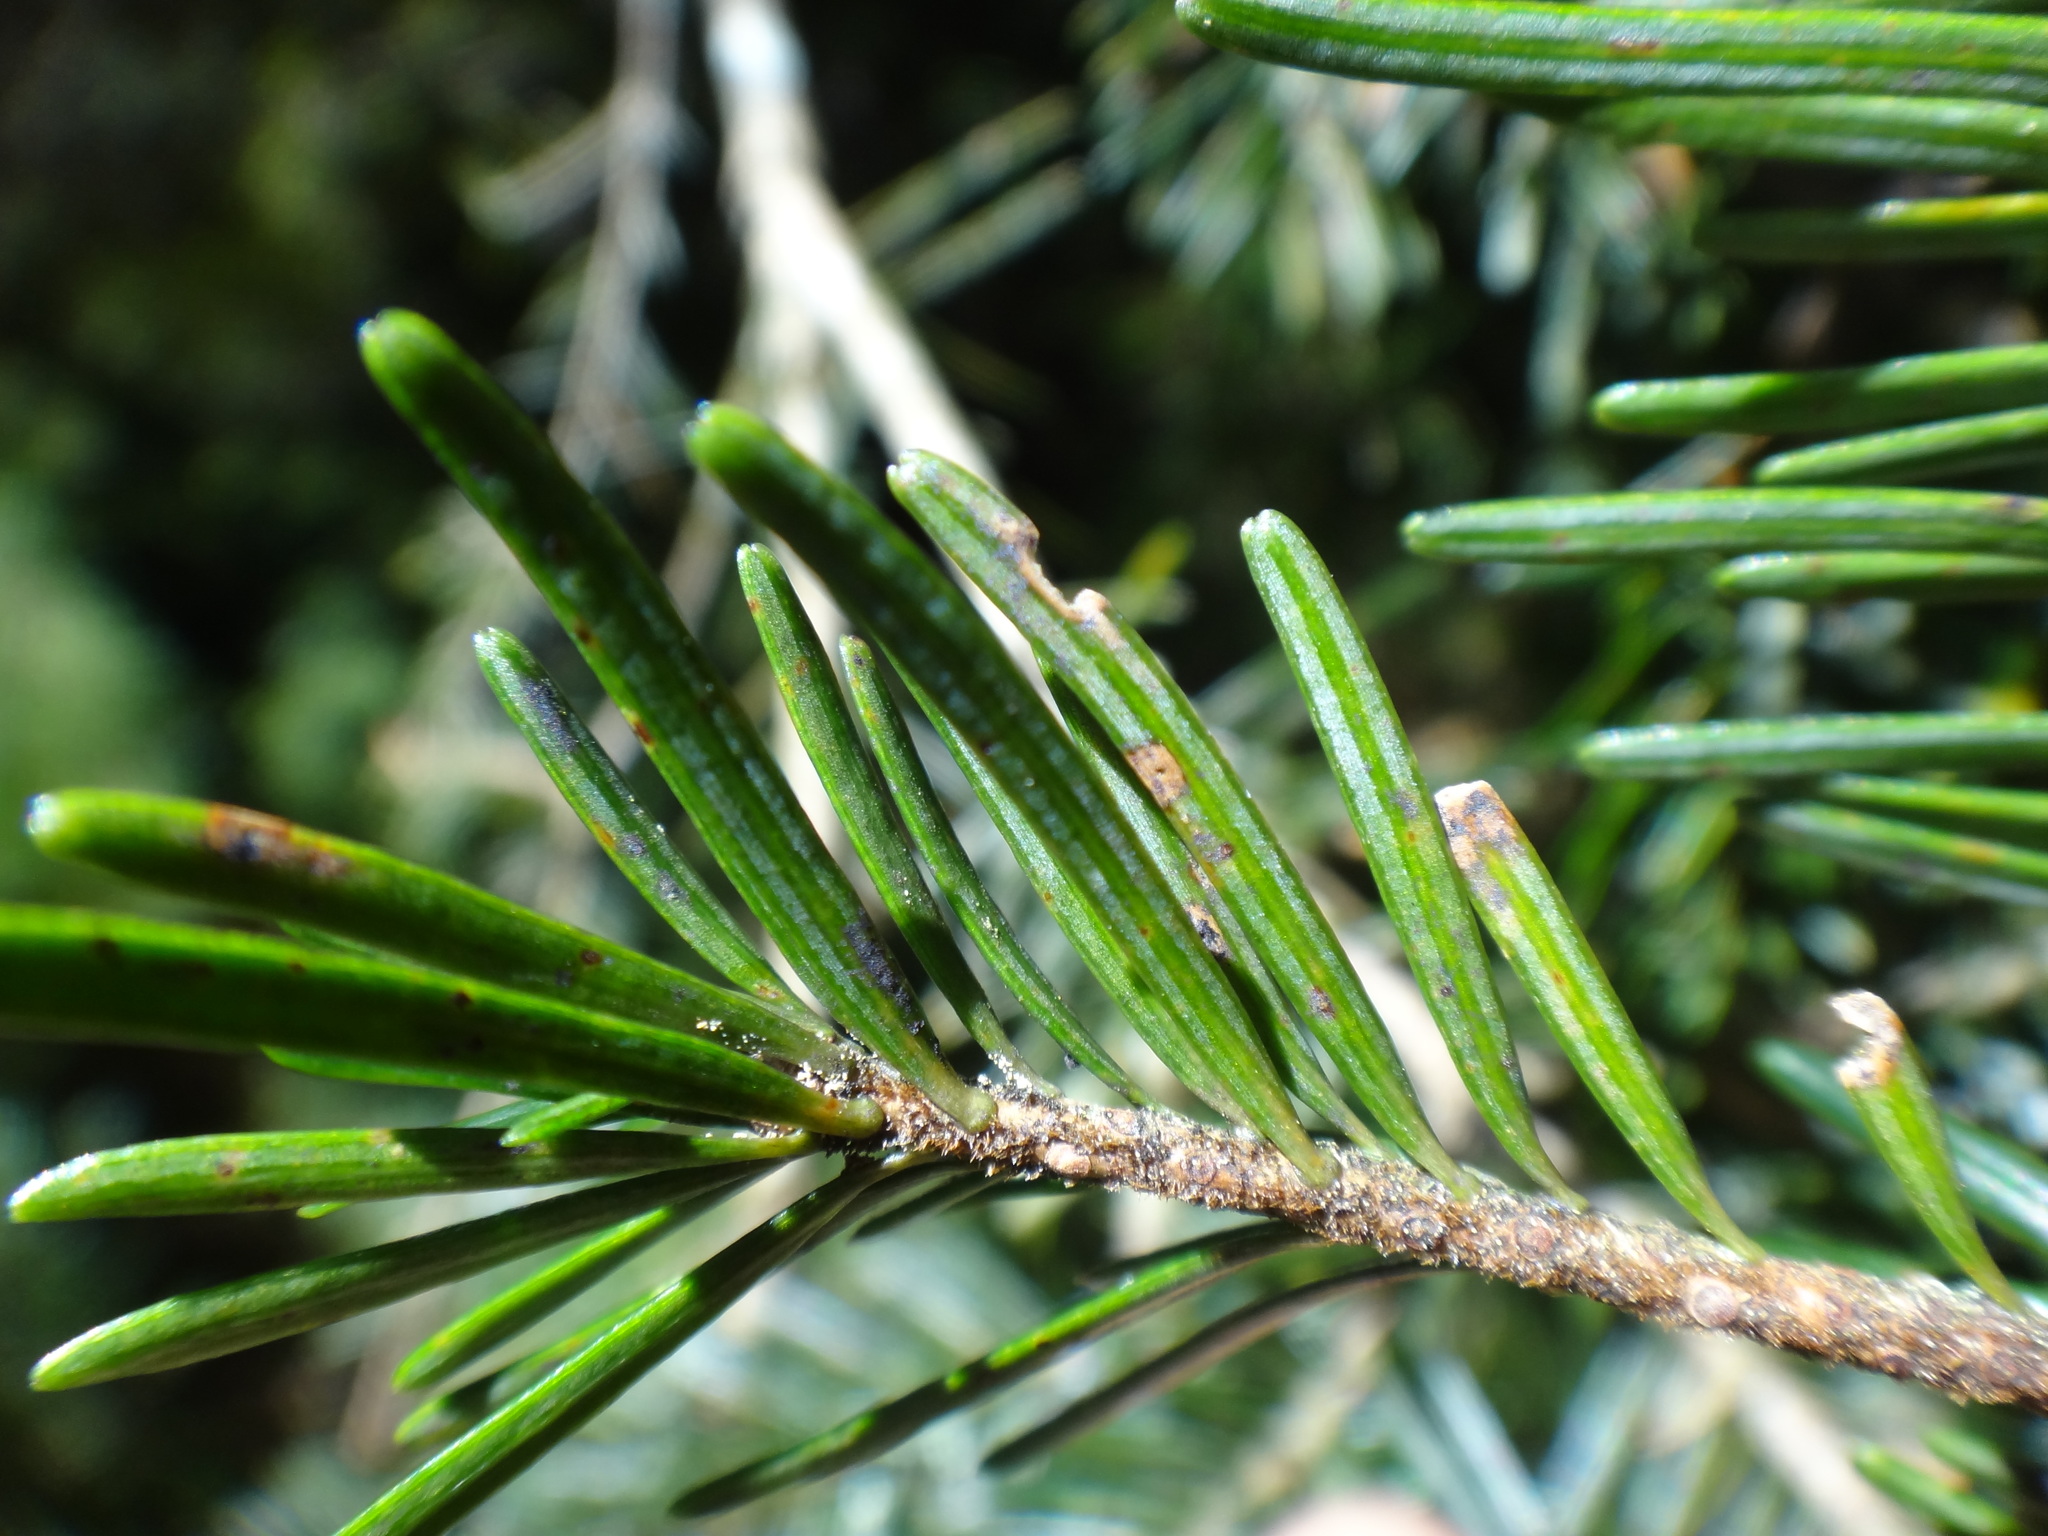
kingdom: Plantae
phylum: Tracheophyta
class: Pinopsida
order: Pinales
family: Pinaceae
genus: Tsuga
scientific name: Tsuga chinensis
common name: Chinese hemlock
